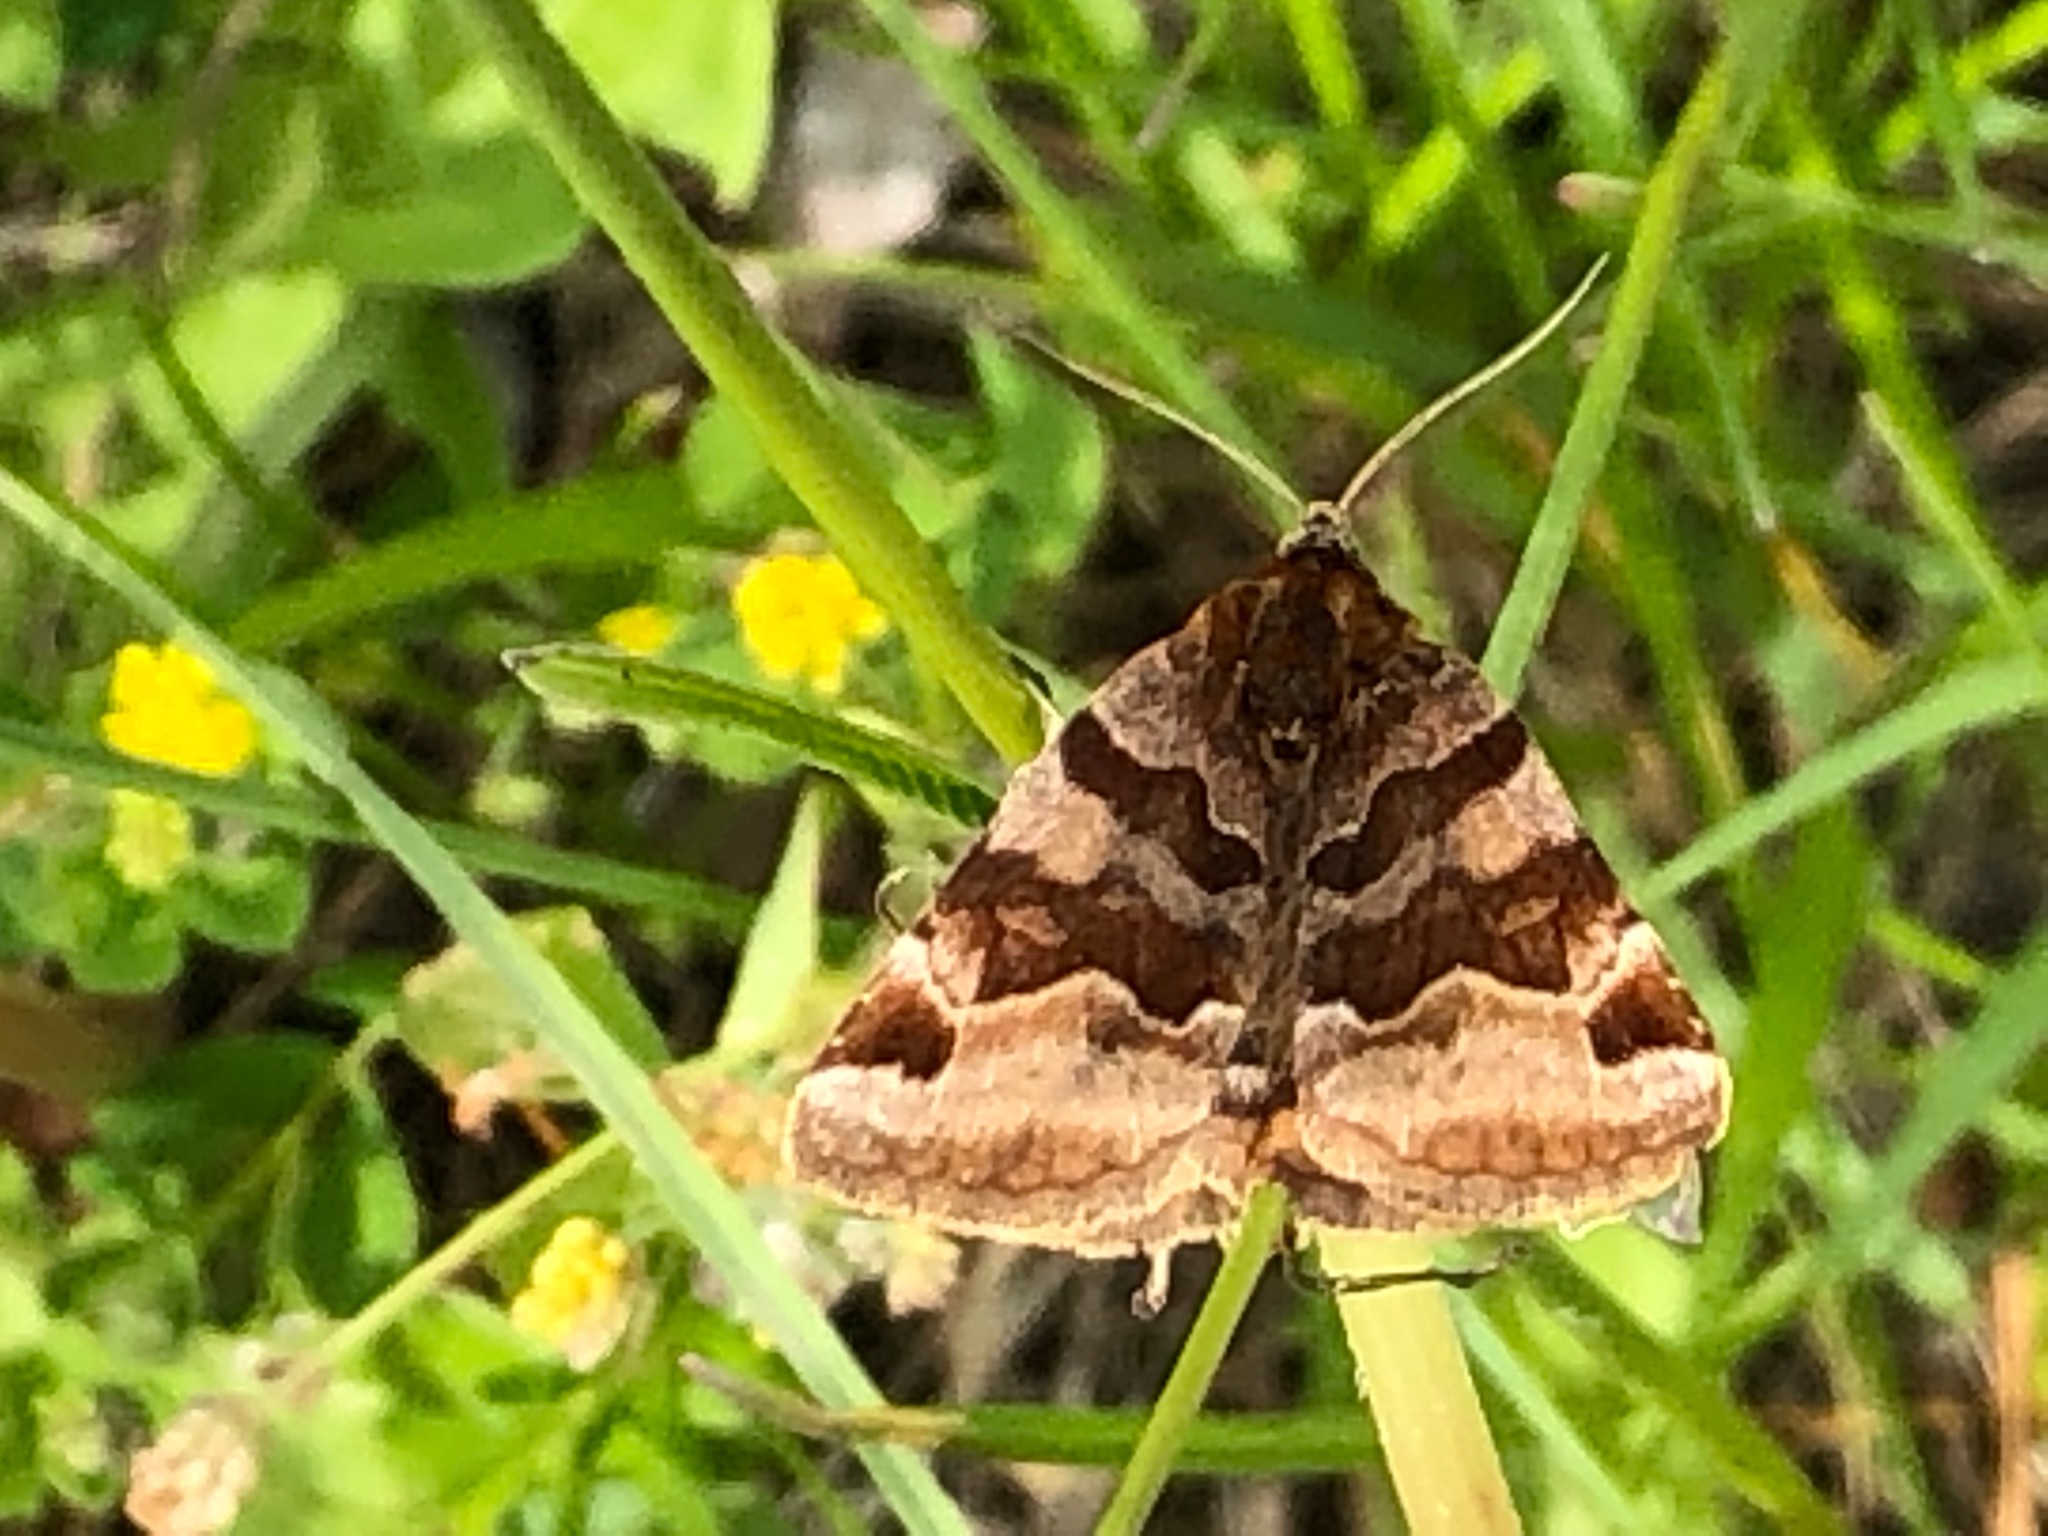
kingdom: Animalia
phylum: Arthropoda
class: Insecta
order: Lepidoptera
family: Erebidae
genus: Euclidia
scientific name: Euclidia glyphica
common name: Burnet companion
